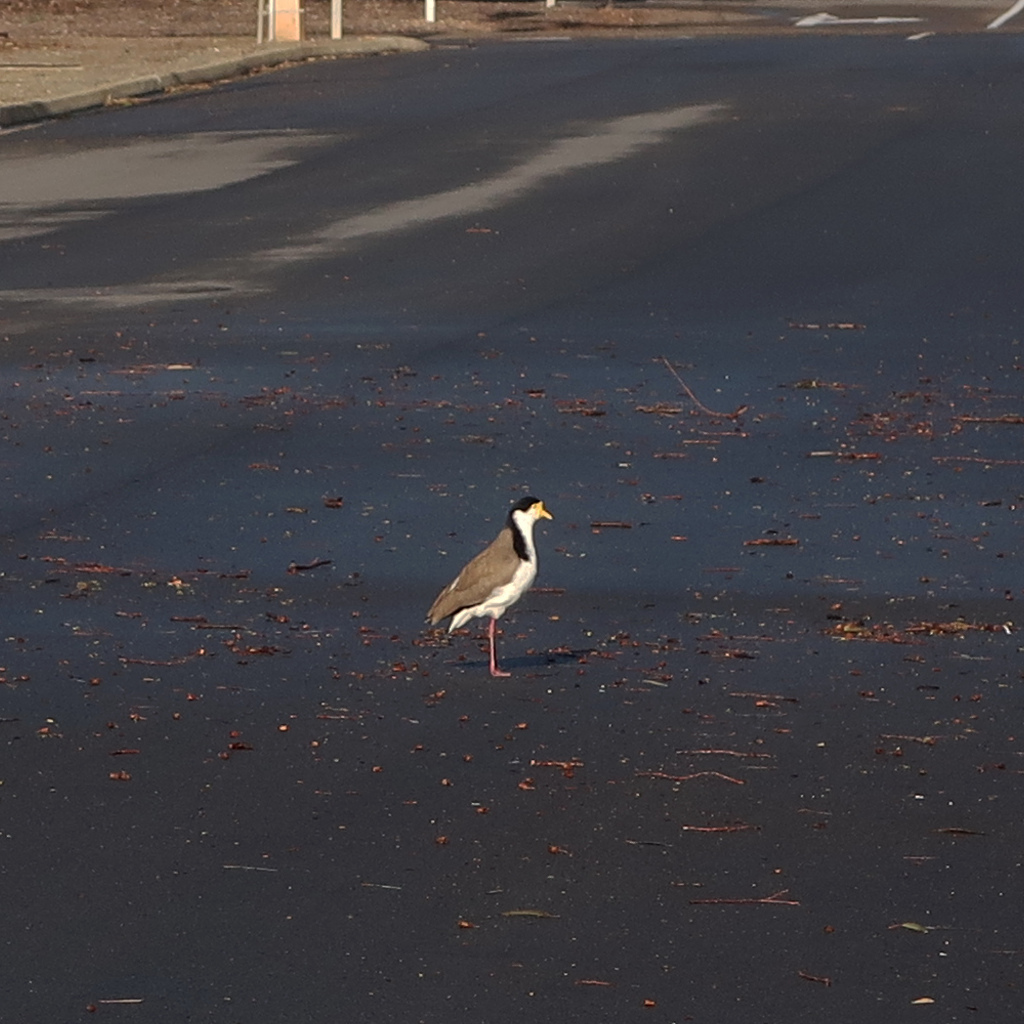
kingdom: Animalia
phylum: Chordata
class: Aves
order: Charadriiformes
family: Charadriidae
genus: Vanellus
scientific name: Vanellus miles
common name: Masked lapwing
